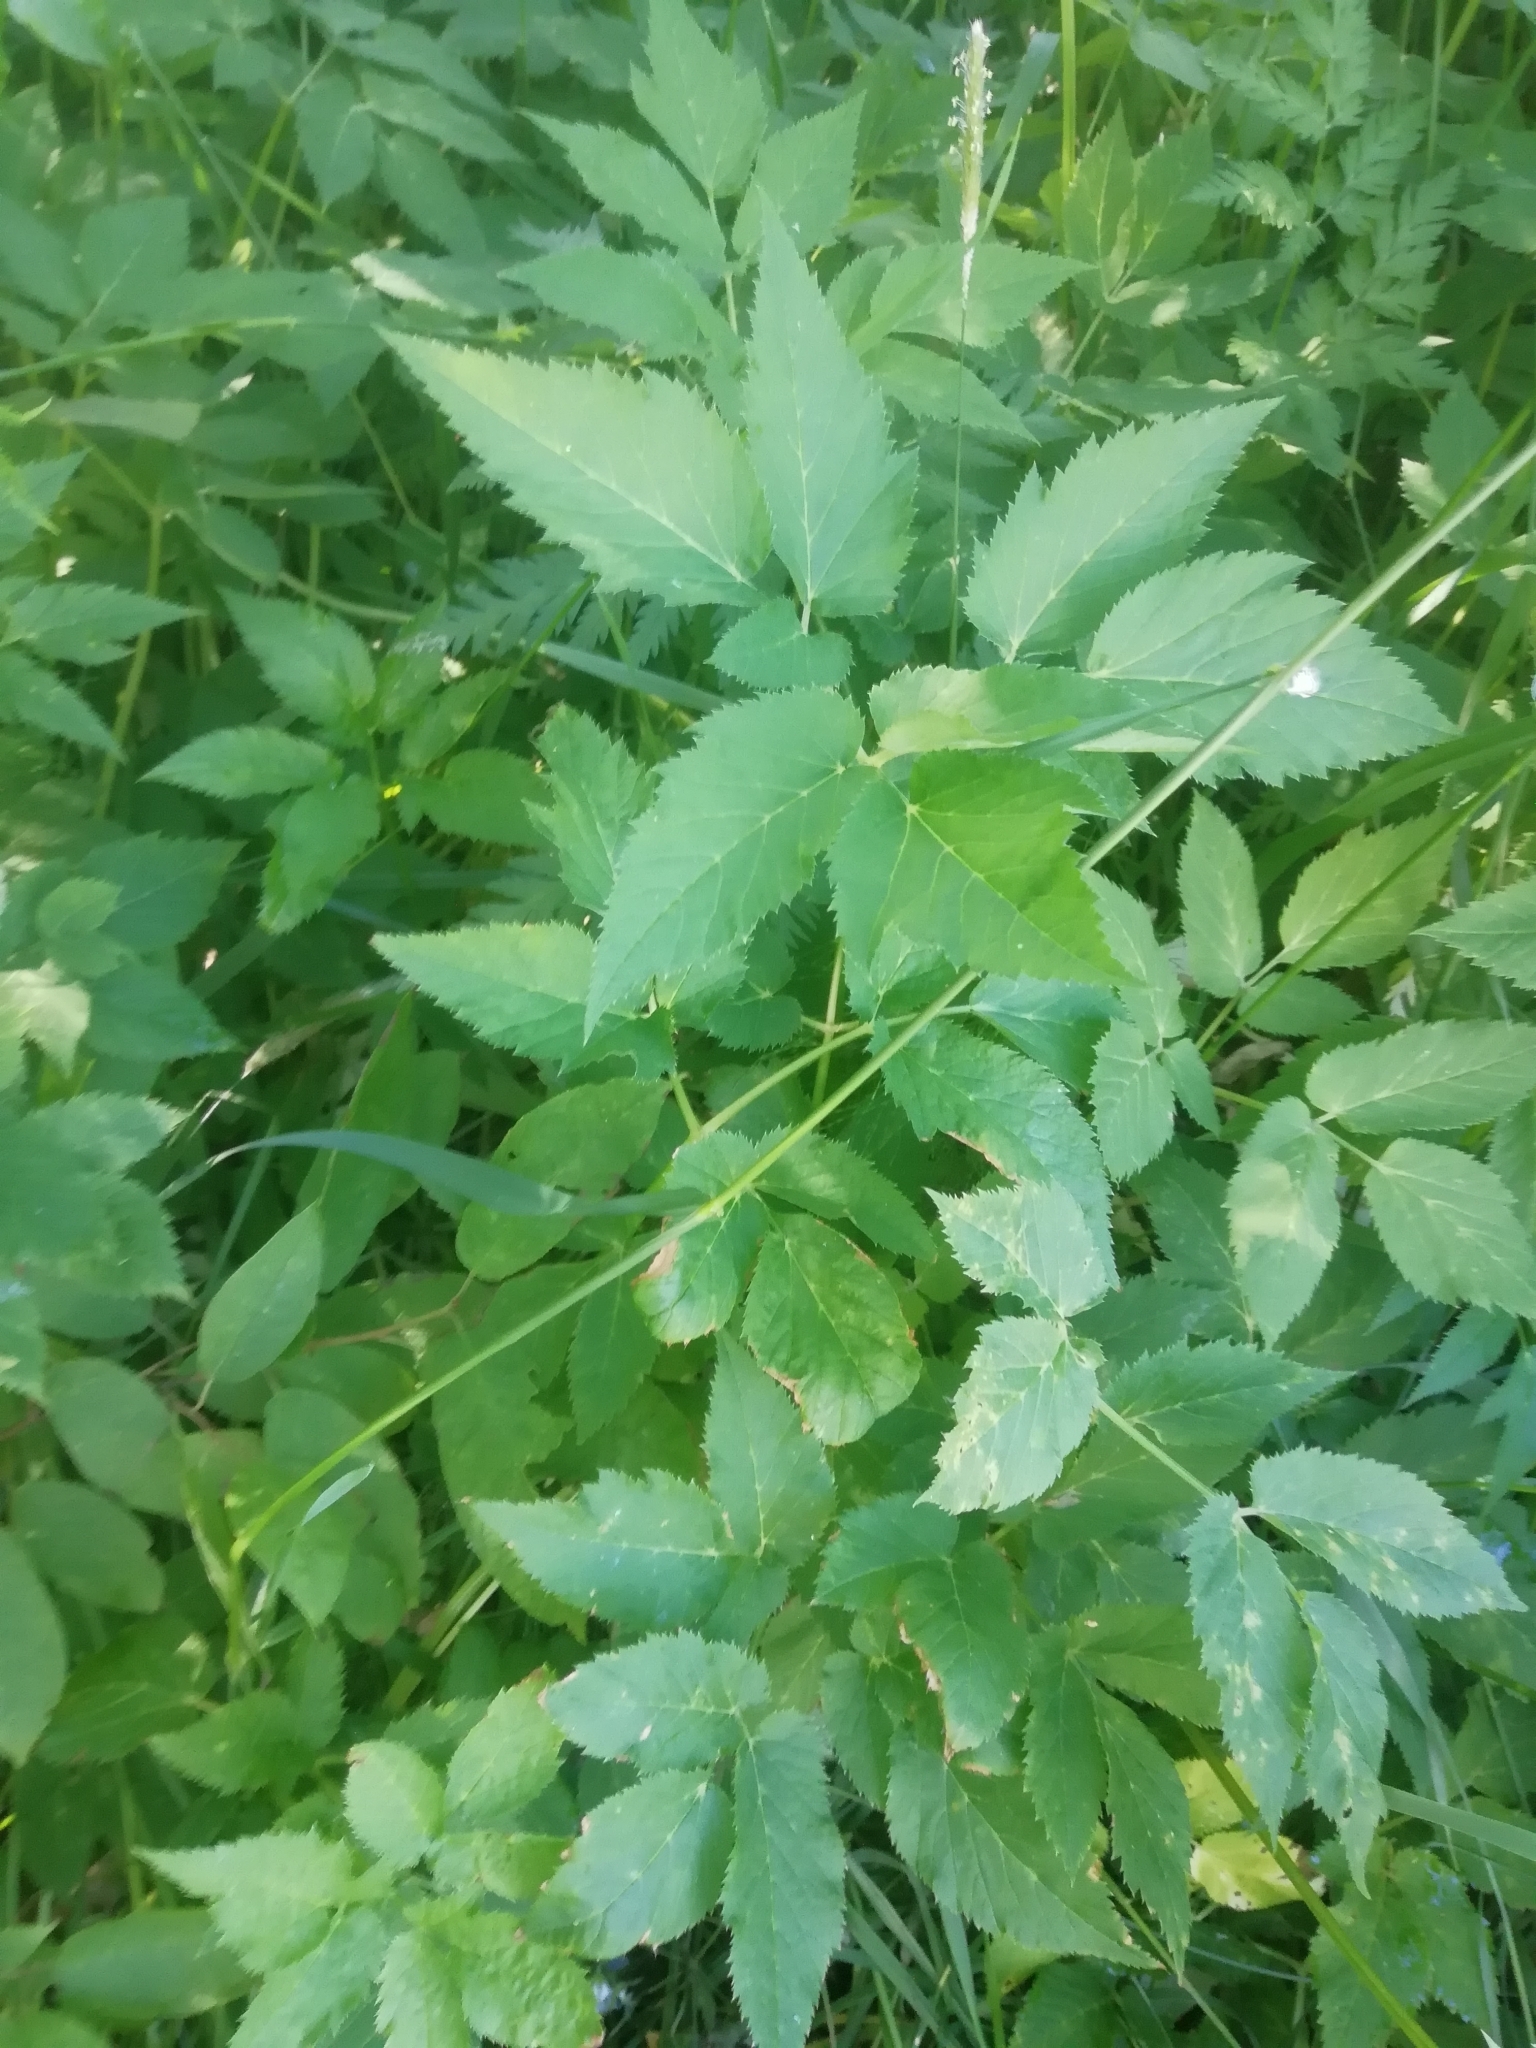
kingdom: Plantae
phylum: Tracheophyta
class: Magnoliopsida
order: Apiales
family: Apiaceae
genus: Aegopodium
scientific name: Aegopodium podagraria
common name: Ground-elder
